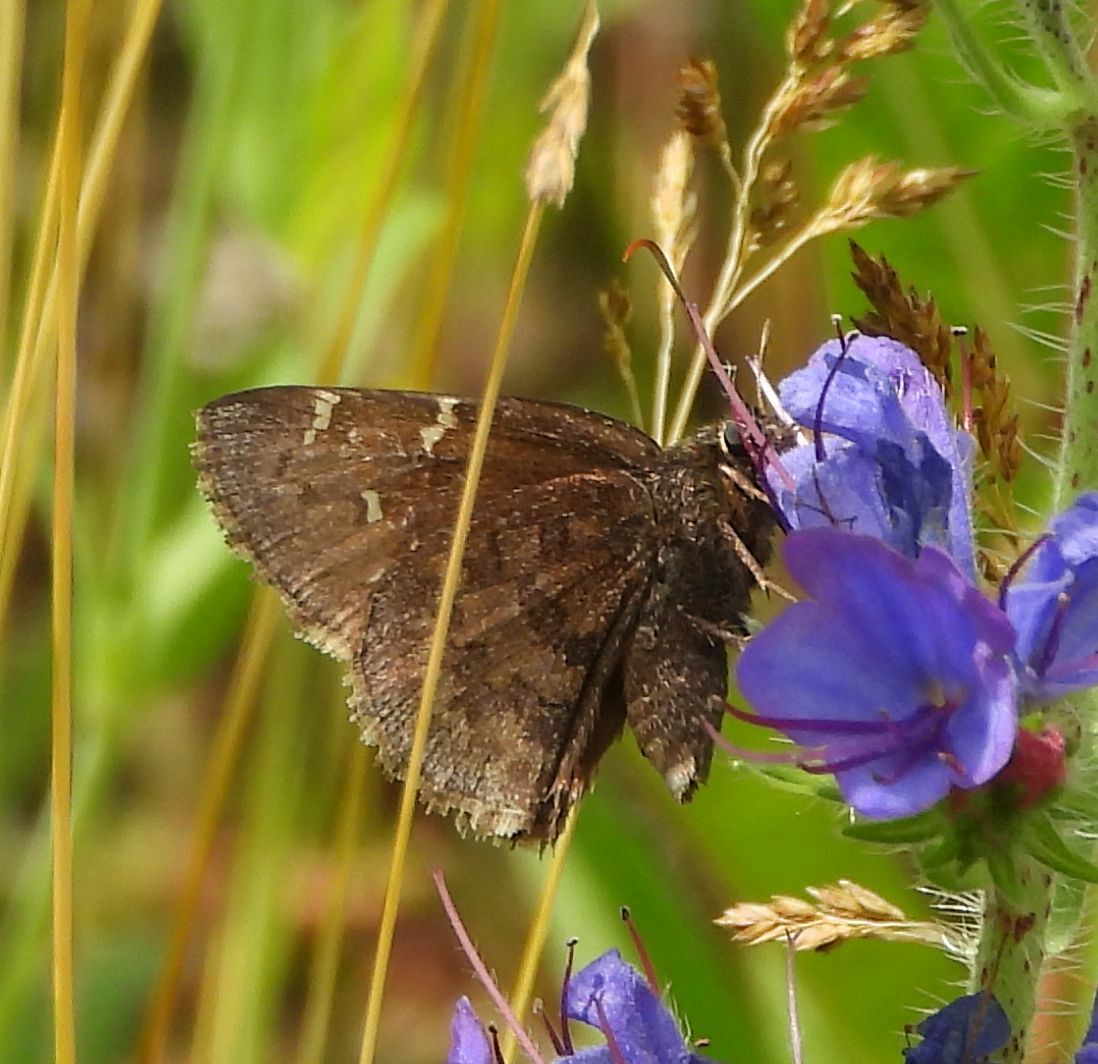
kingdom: Animalia
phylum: Arthropoda
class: Insecta
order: Lepidoptera
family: Hesperiidae
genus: Thorybes
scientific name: Thorybes pylades
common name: Northern cloudywing
